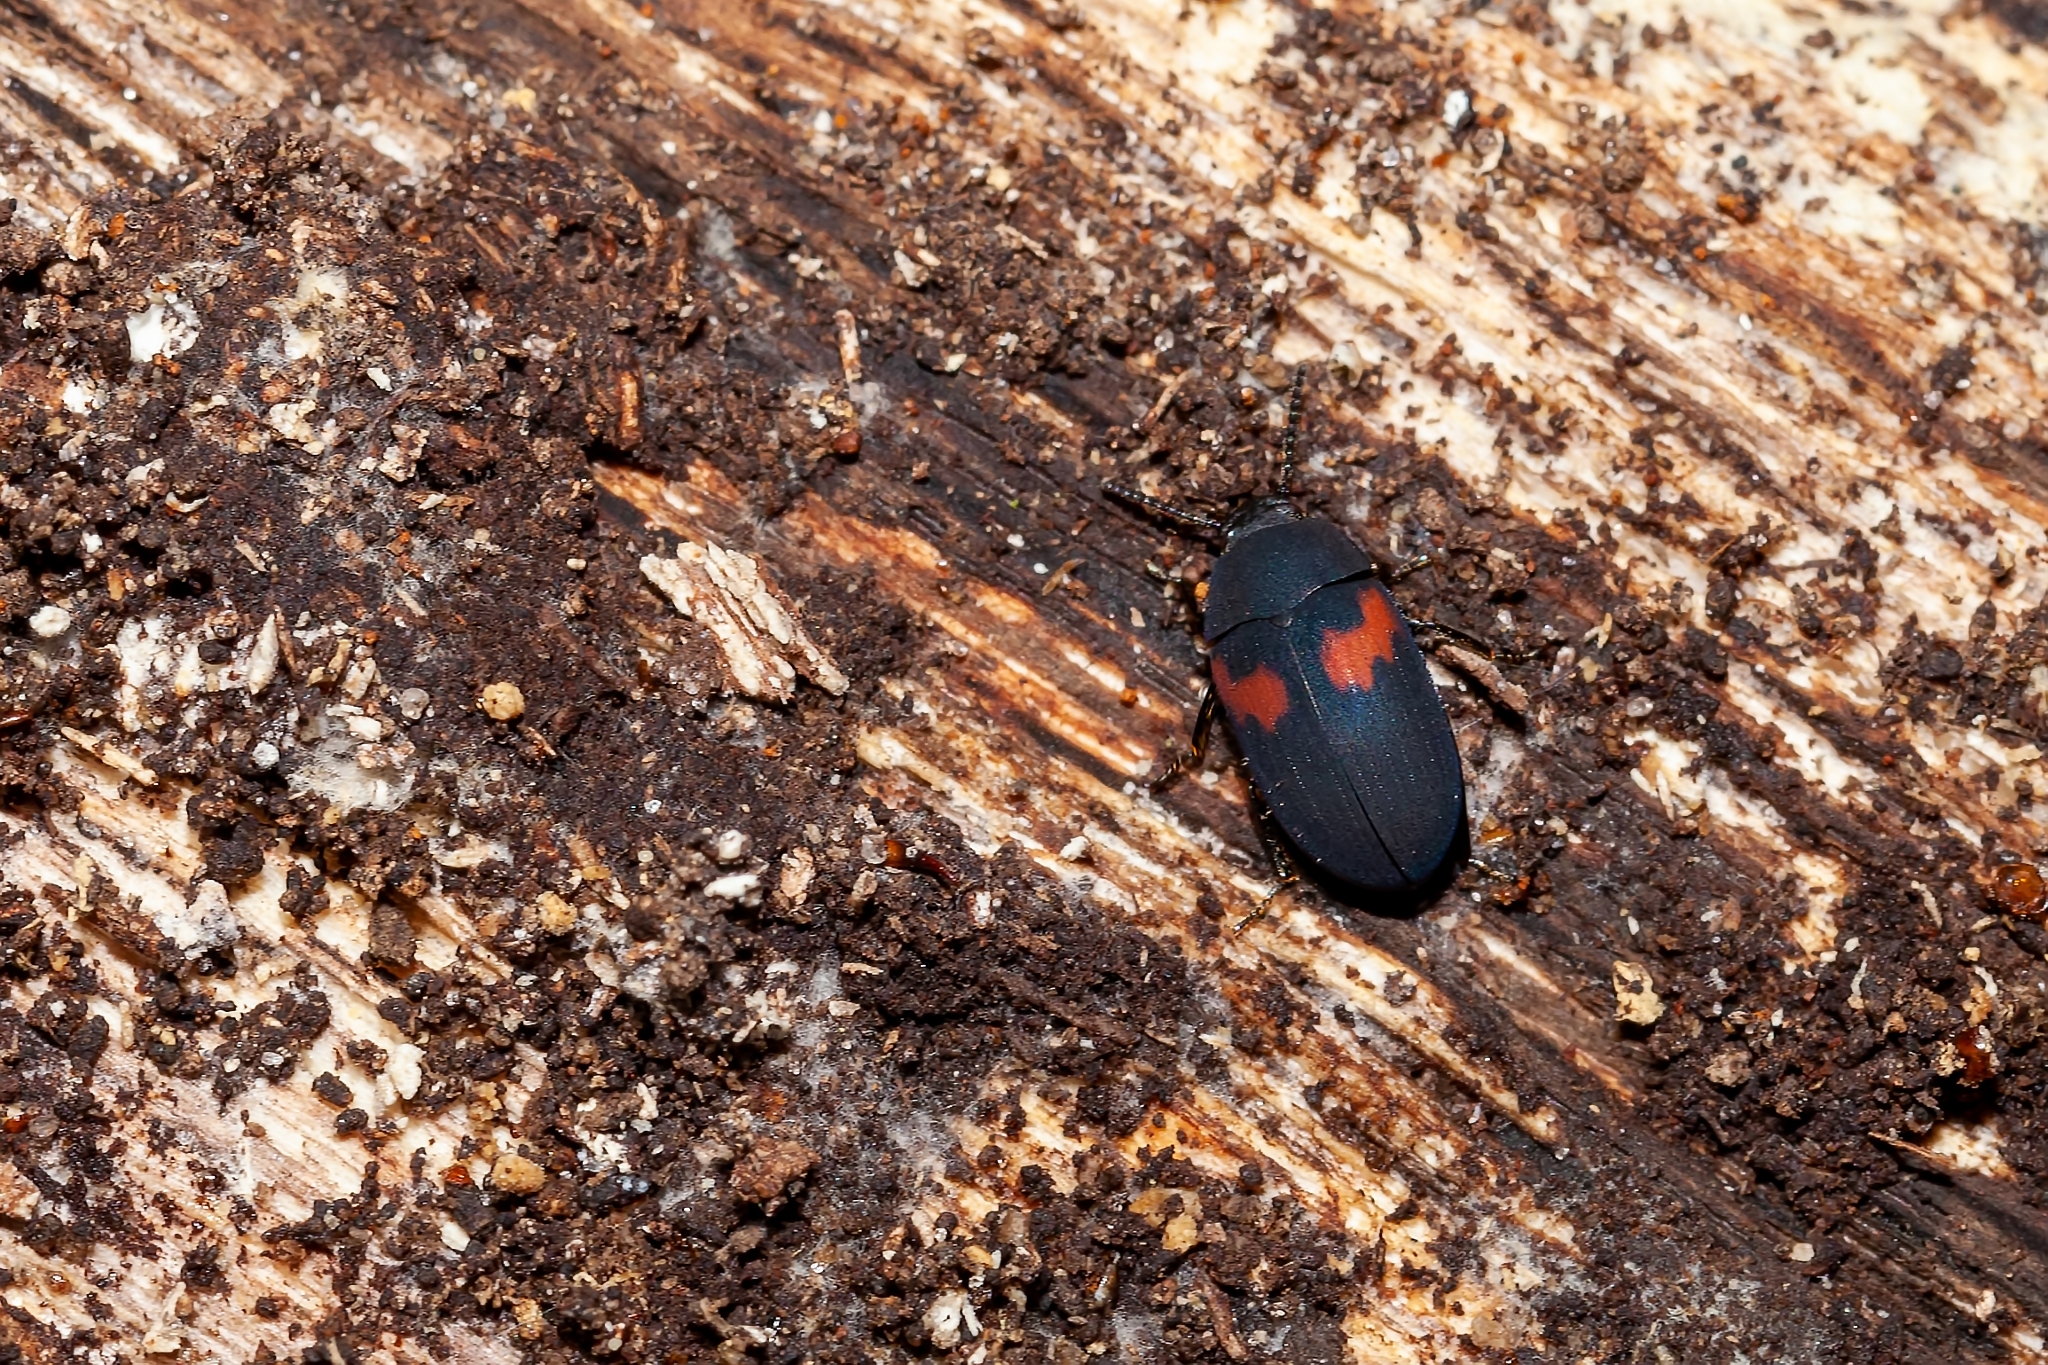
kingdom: Animalia
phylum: Arthropoda
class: Insecta
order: Coleoptera
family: Tenebrionidae
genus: Platydema
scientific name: Platydema elliptica
